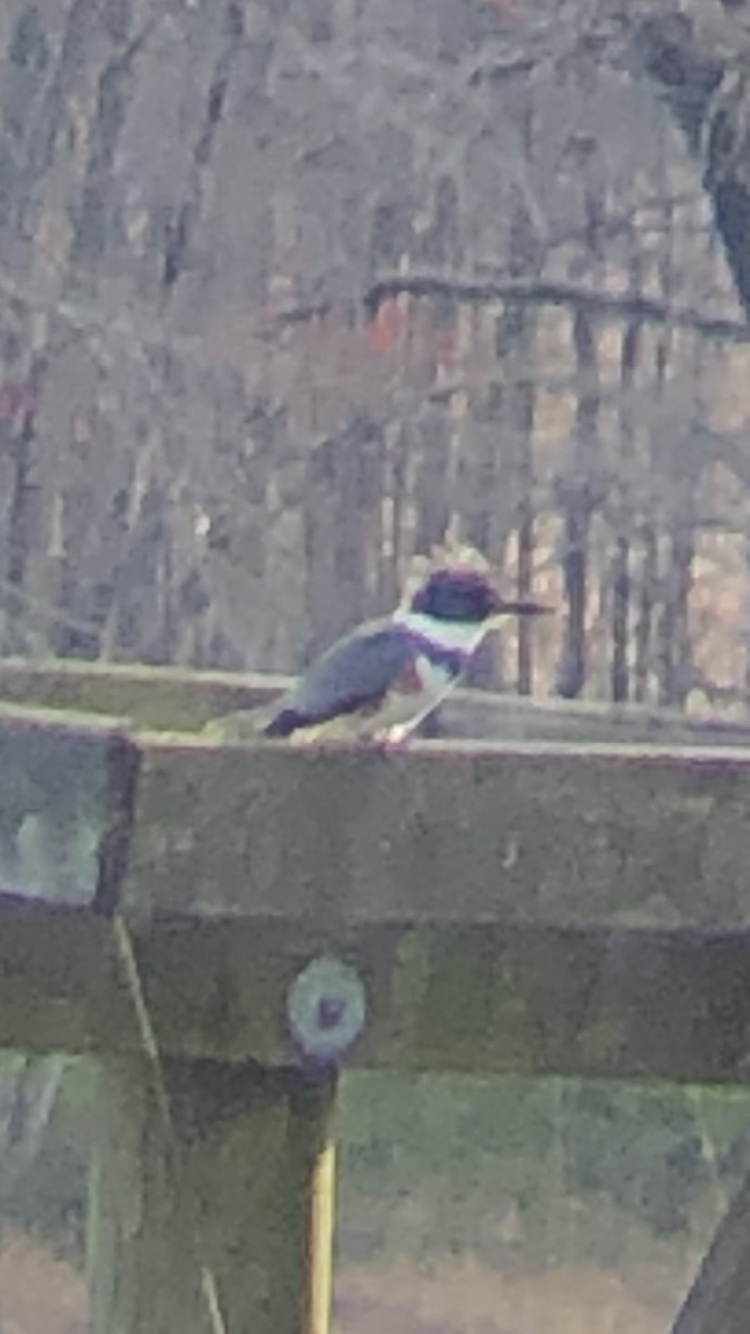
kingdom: Animalia
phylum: Chordata
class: Aves
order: Coraciiformes
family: Alcedinidae
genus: Megaceryle
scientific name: Megaceryle alcyon
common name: Belted kingfisher
